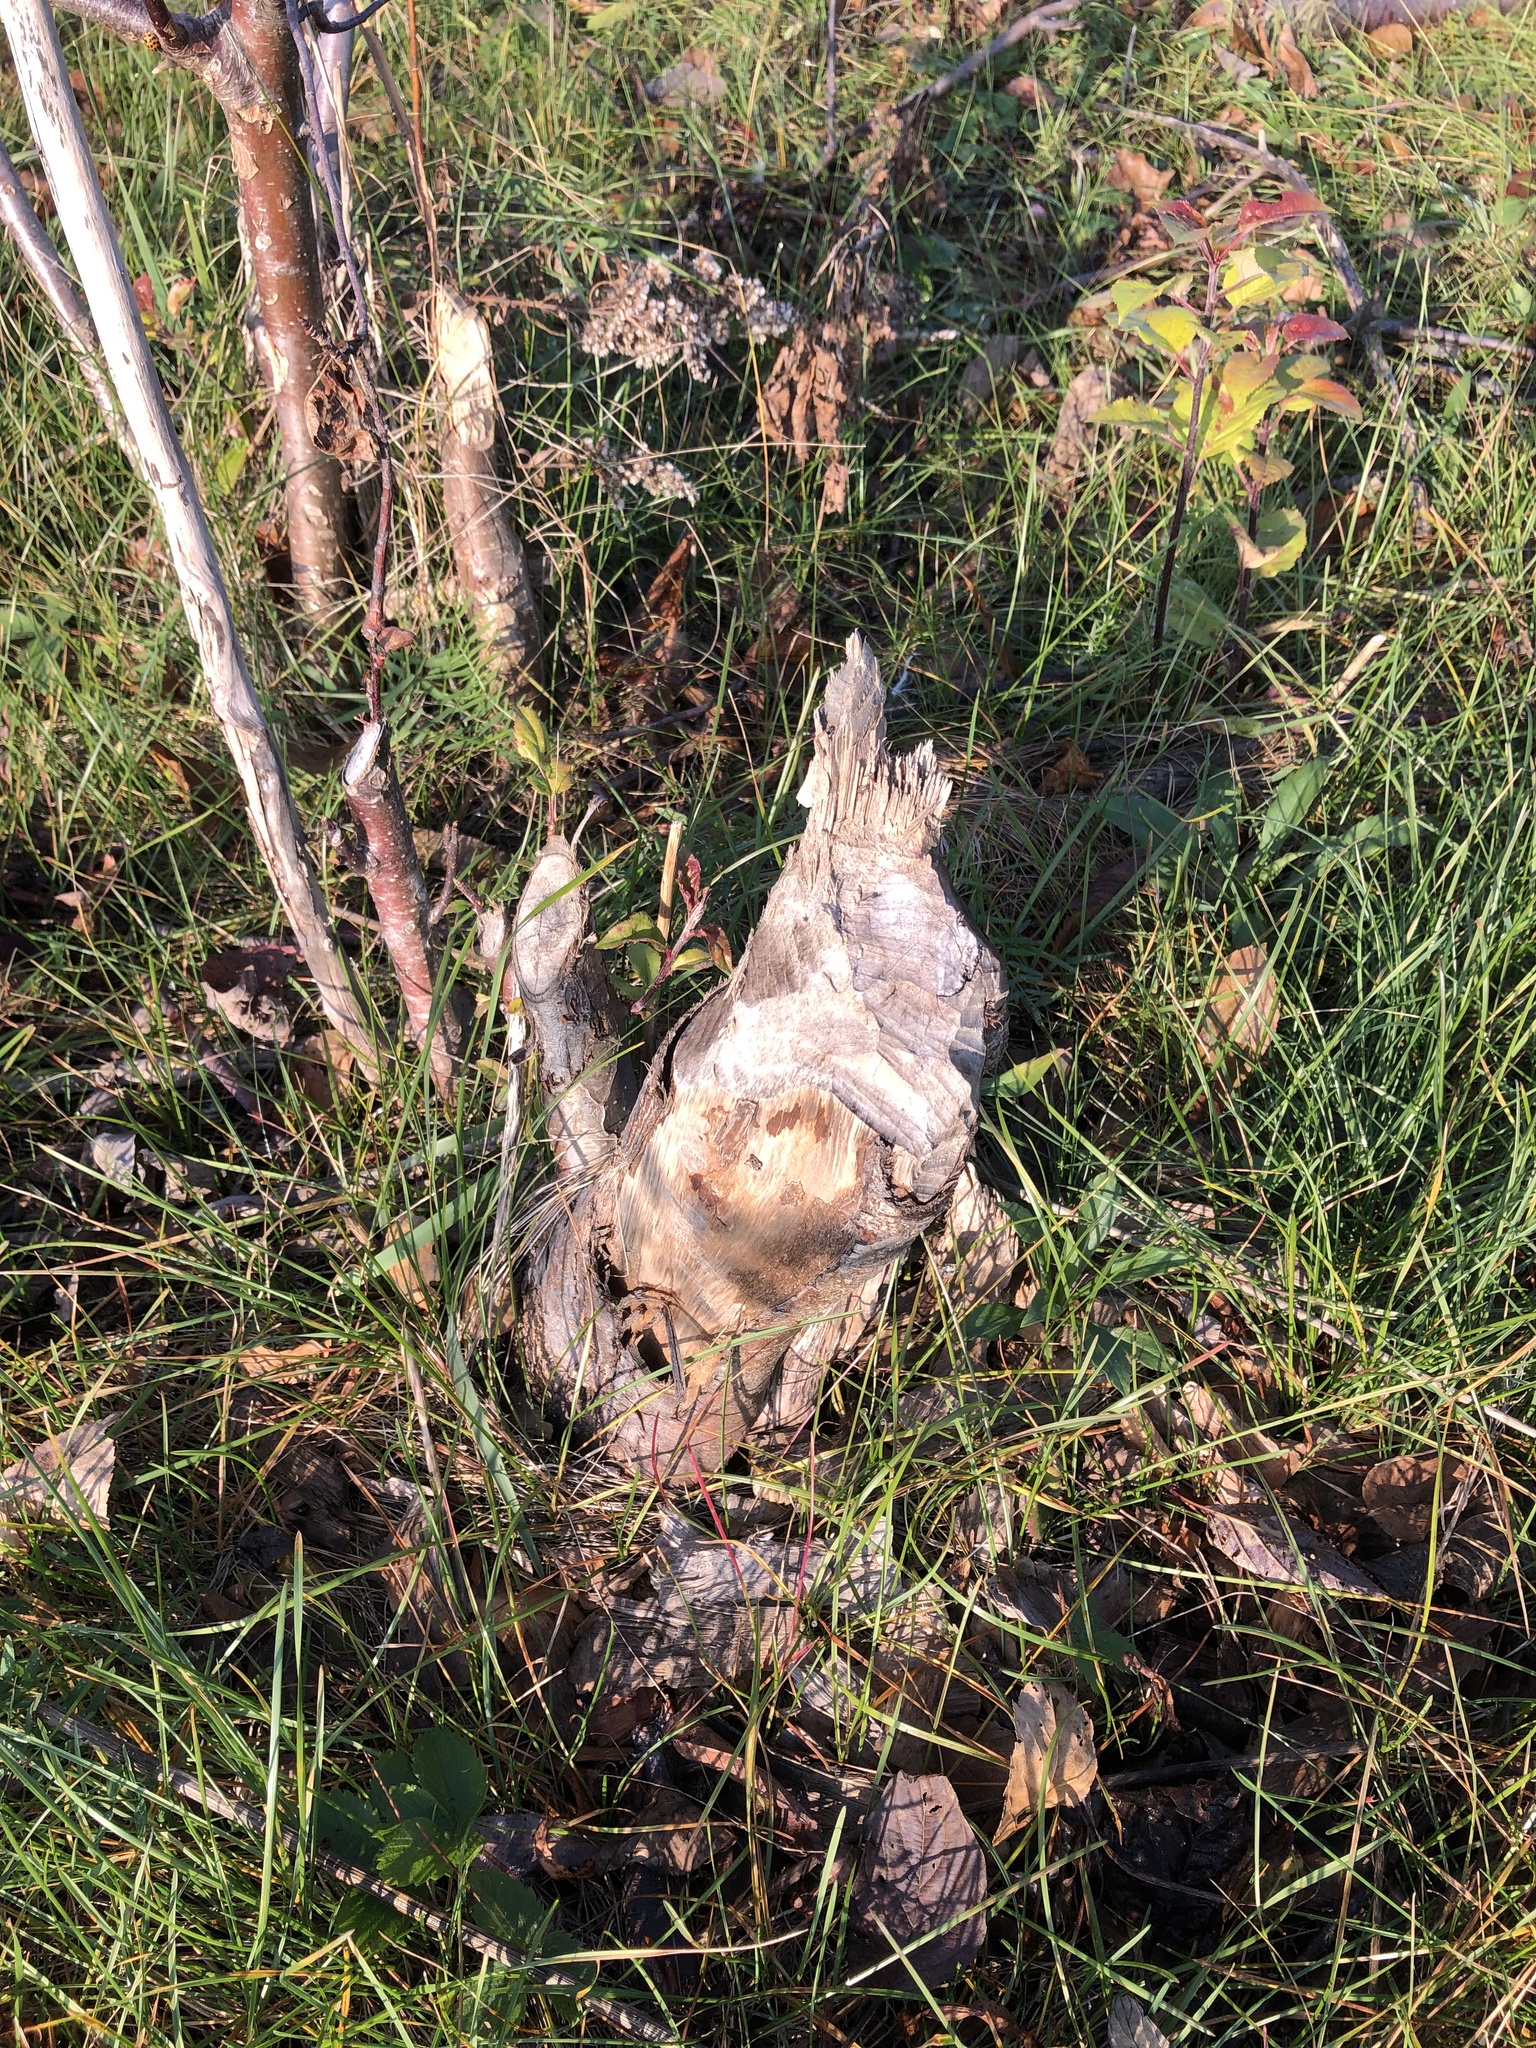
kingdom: Animalia
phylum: Chordata
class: Mammalia
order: Rodentia
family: Castoridae
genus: Castor
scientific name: Castor canadensis
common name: American beaver
